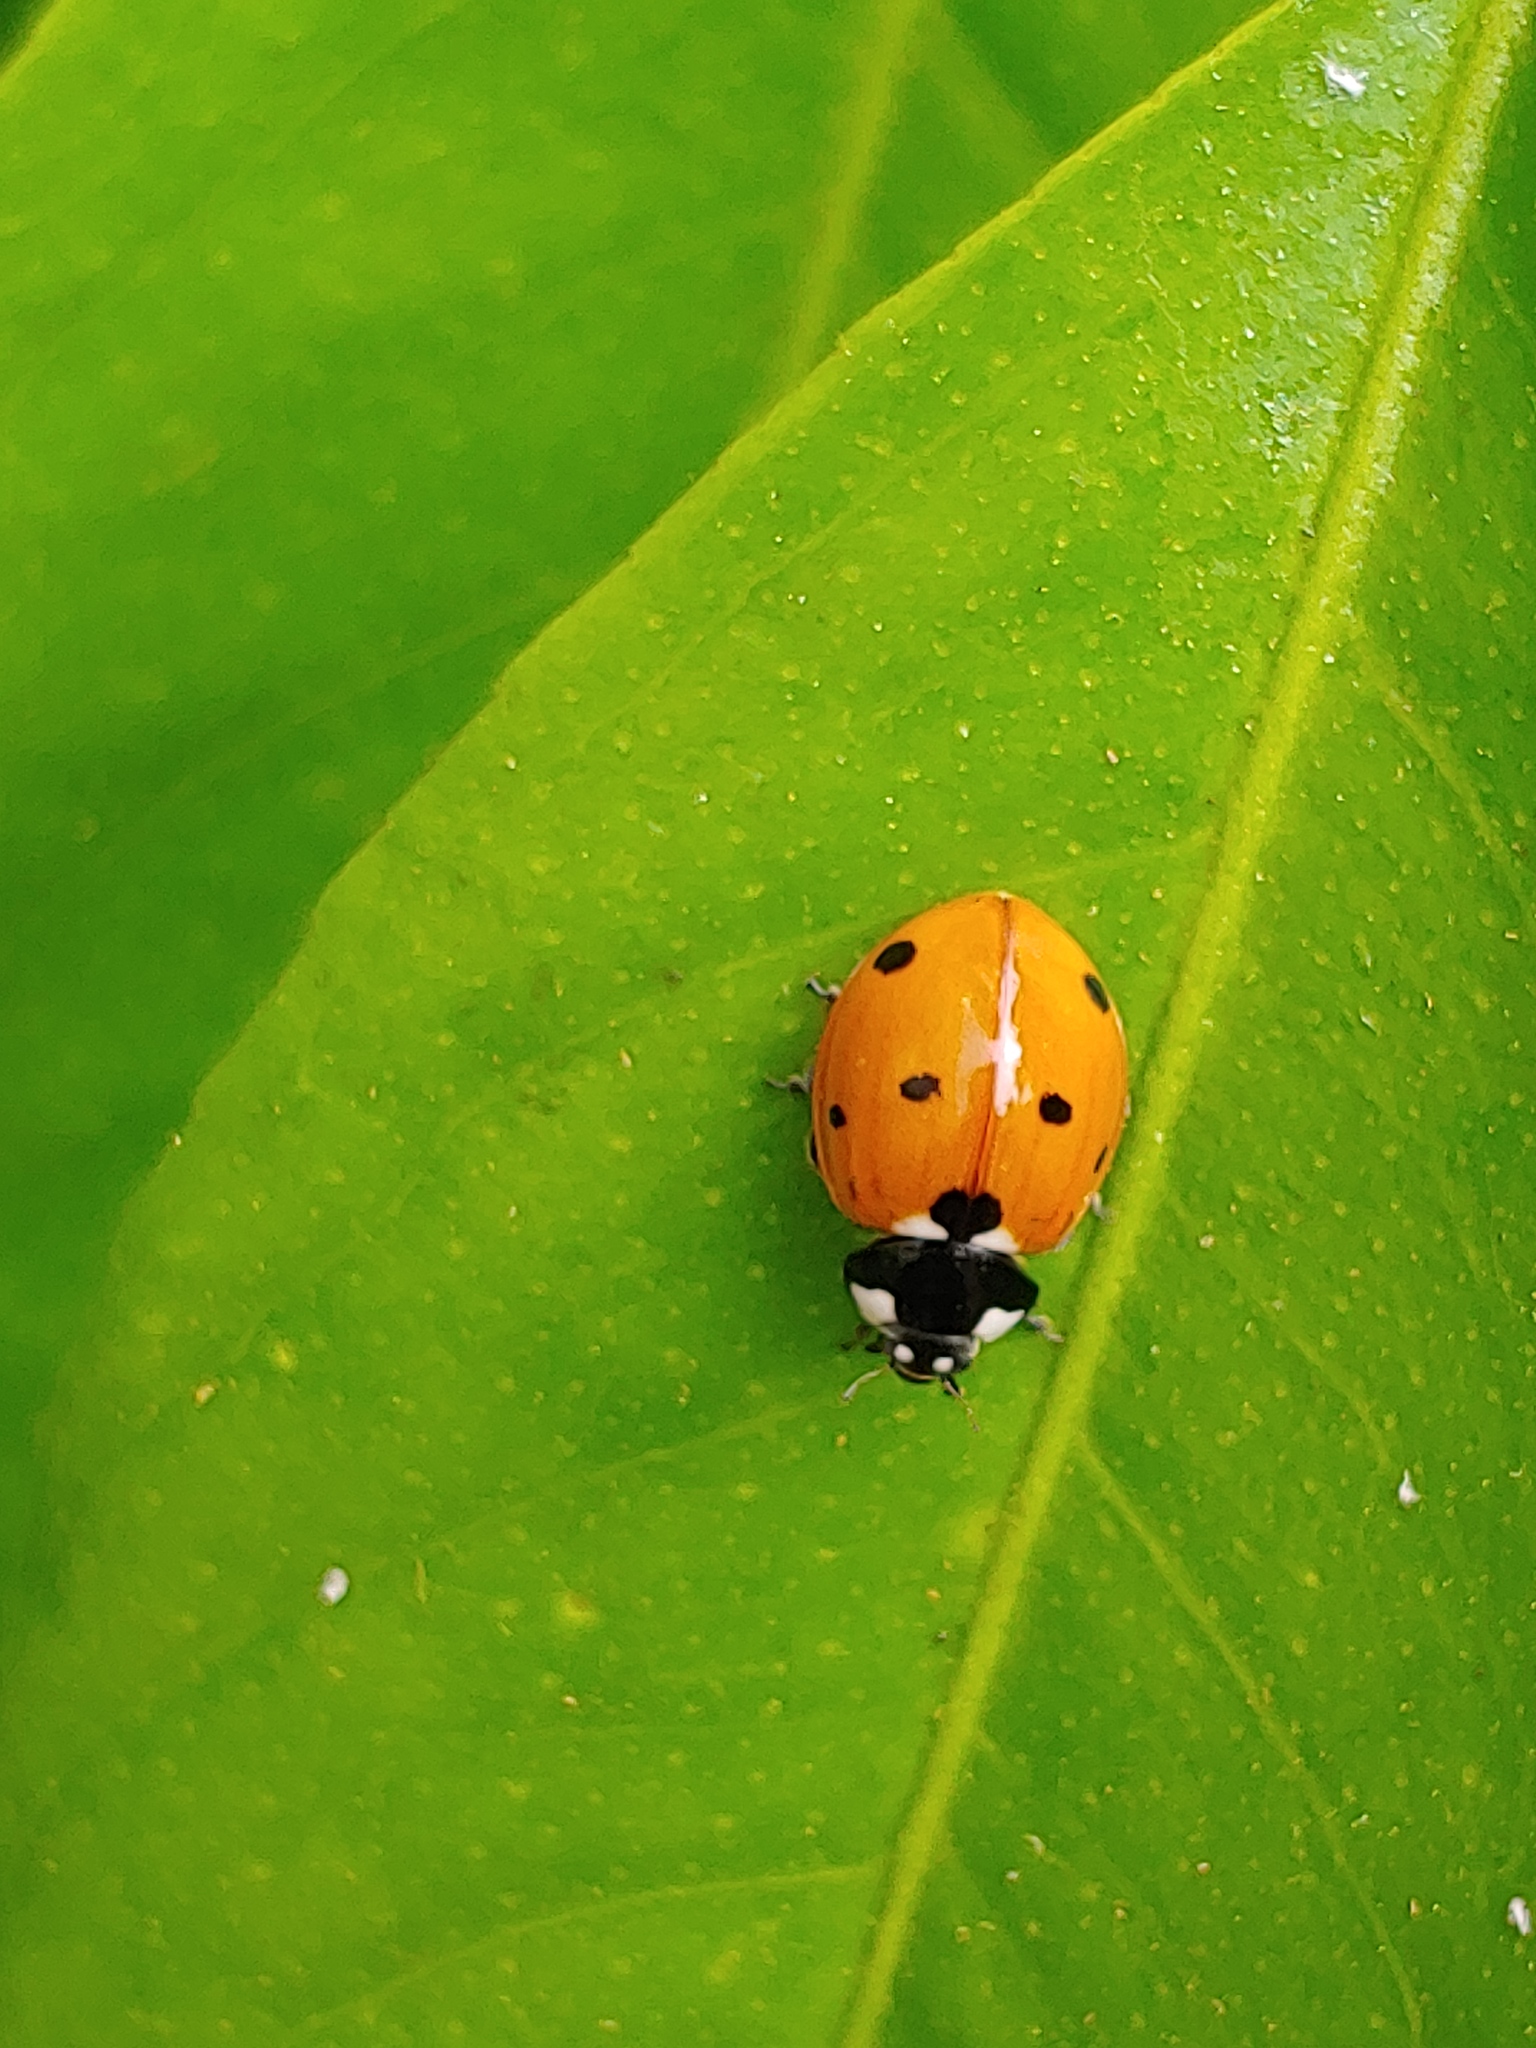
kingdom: Animalia
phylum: Arthropoda
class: Insecta
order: Coleoptera
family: Coccinellidae
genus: Coccinella
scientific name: Coccinella septempunctata
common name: Sevenspotted lady beetle
